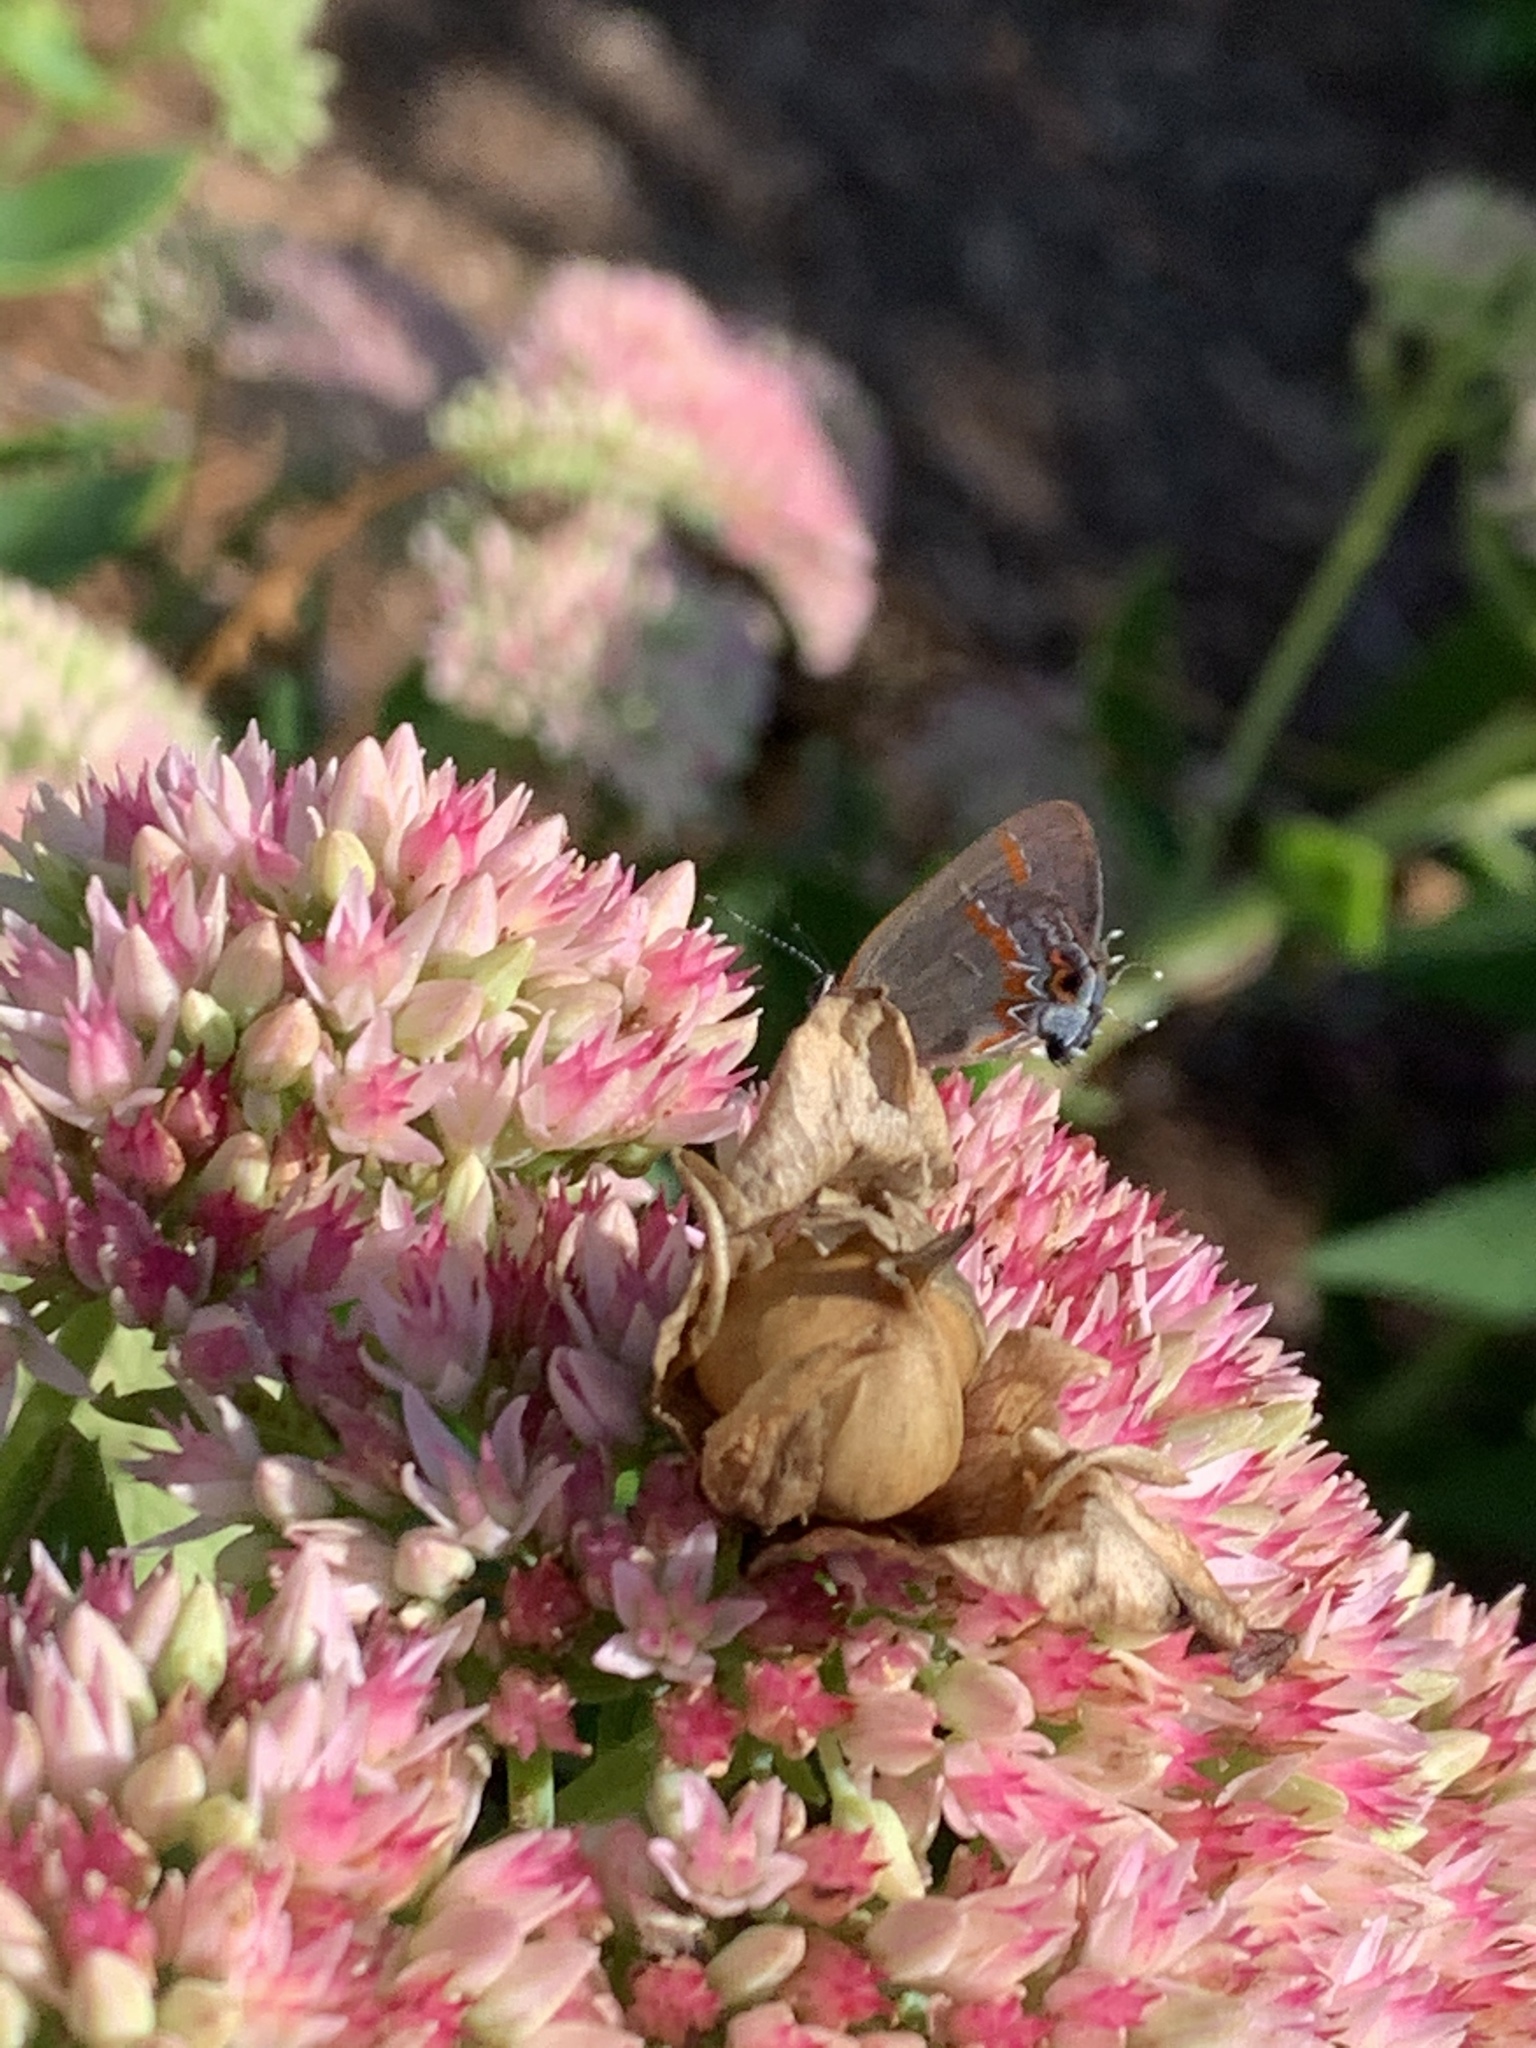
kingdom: Animalia
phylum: Arthropoda
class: Insecta
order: Lepidoptera
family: Lycaenidae
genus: Calycopis
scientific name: Calycopis cecrops
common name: Red-banded hairstreak
